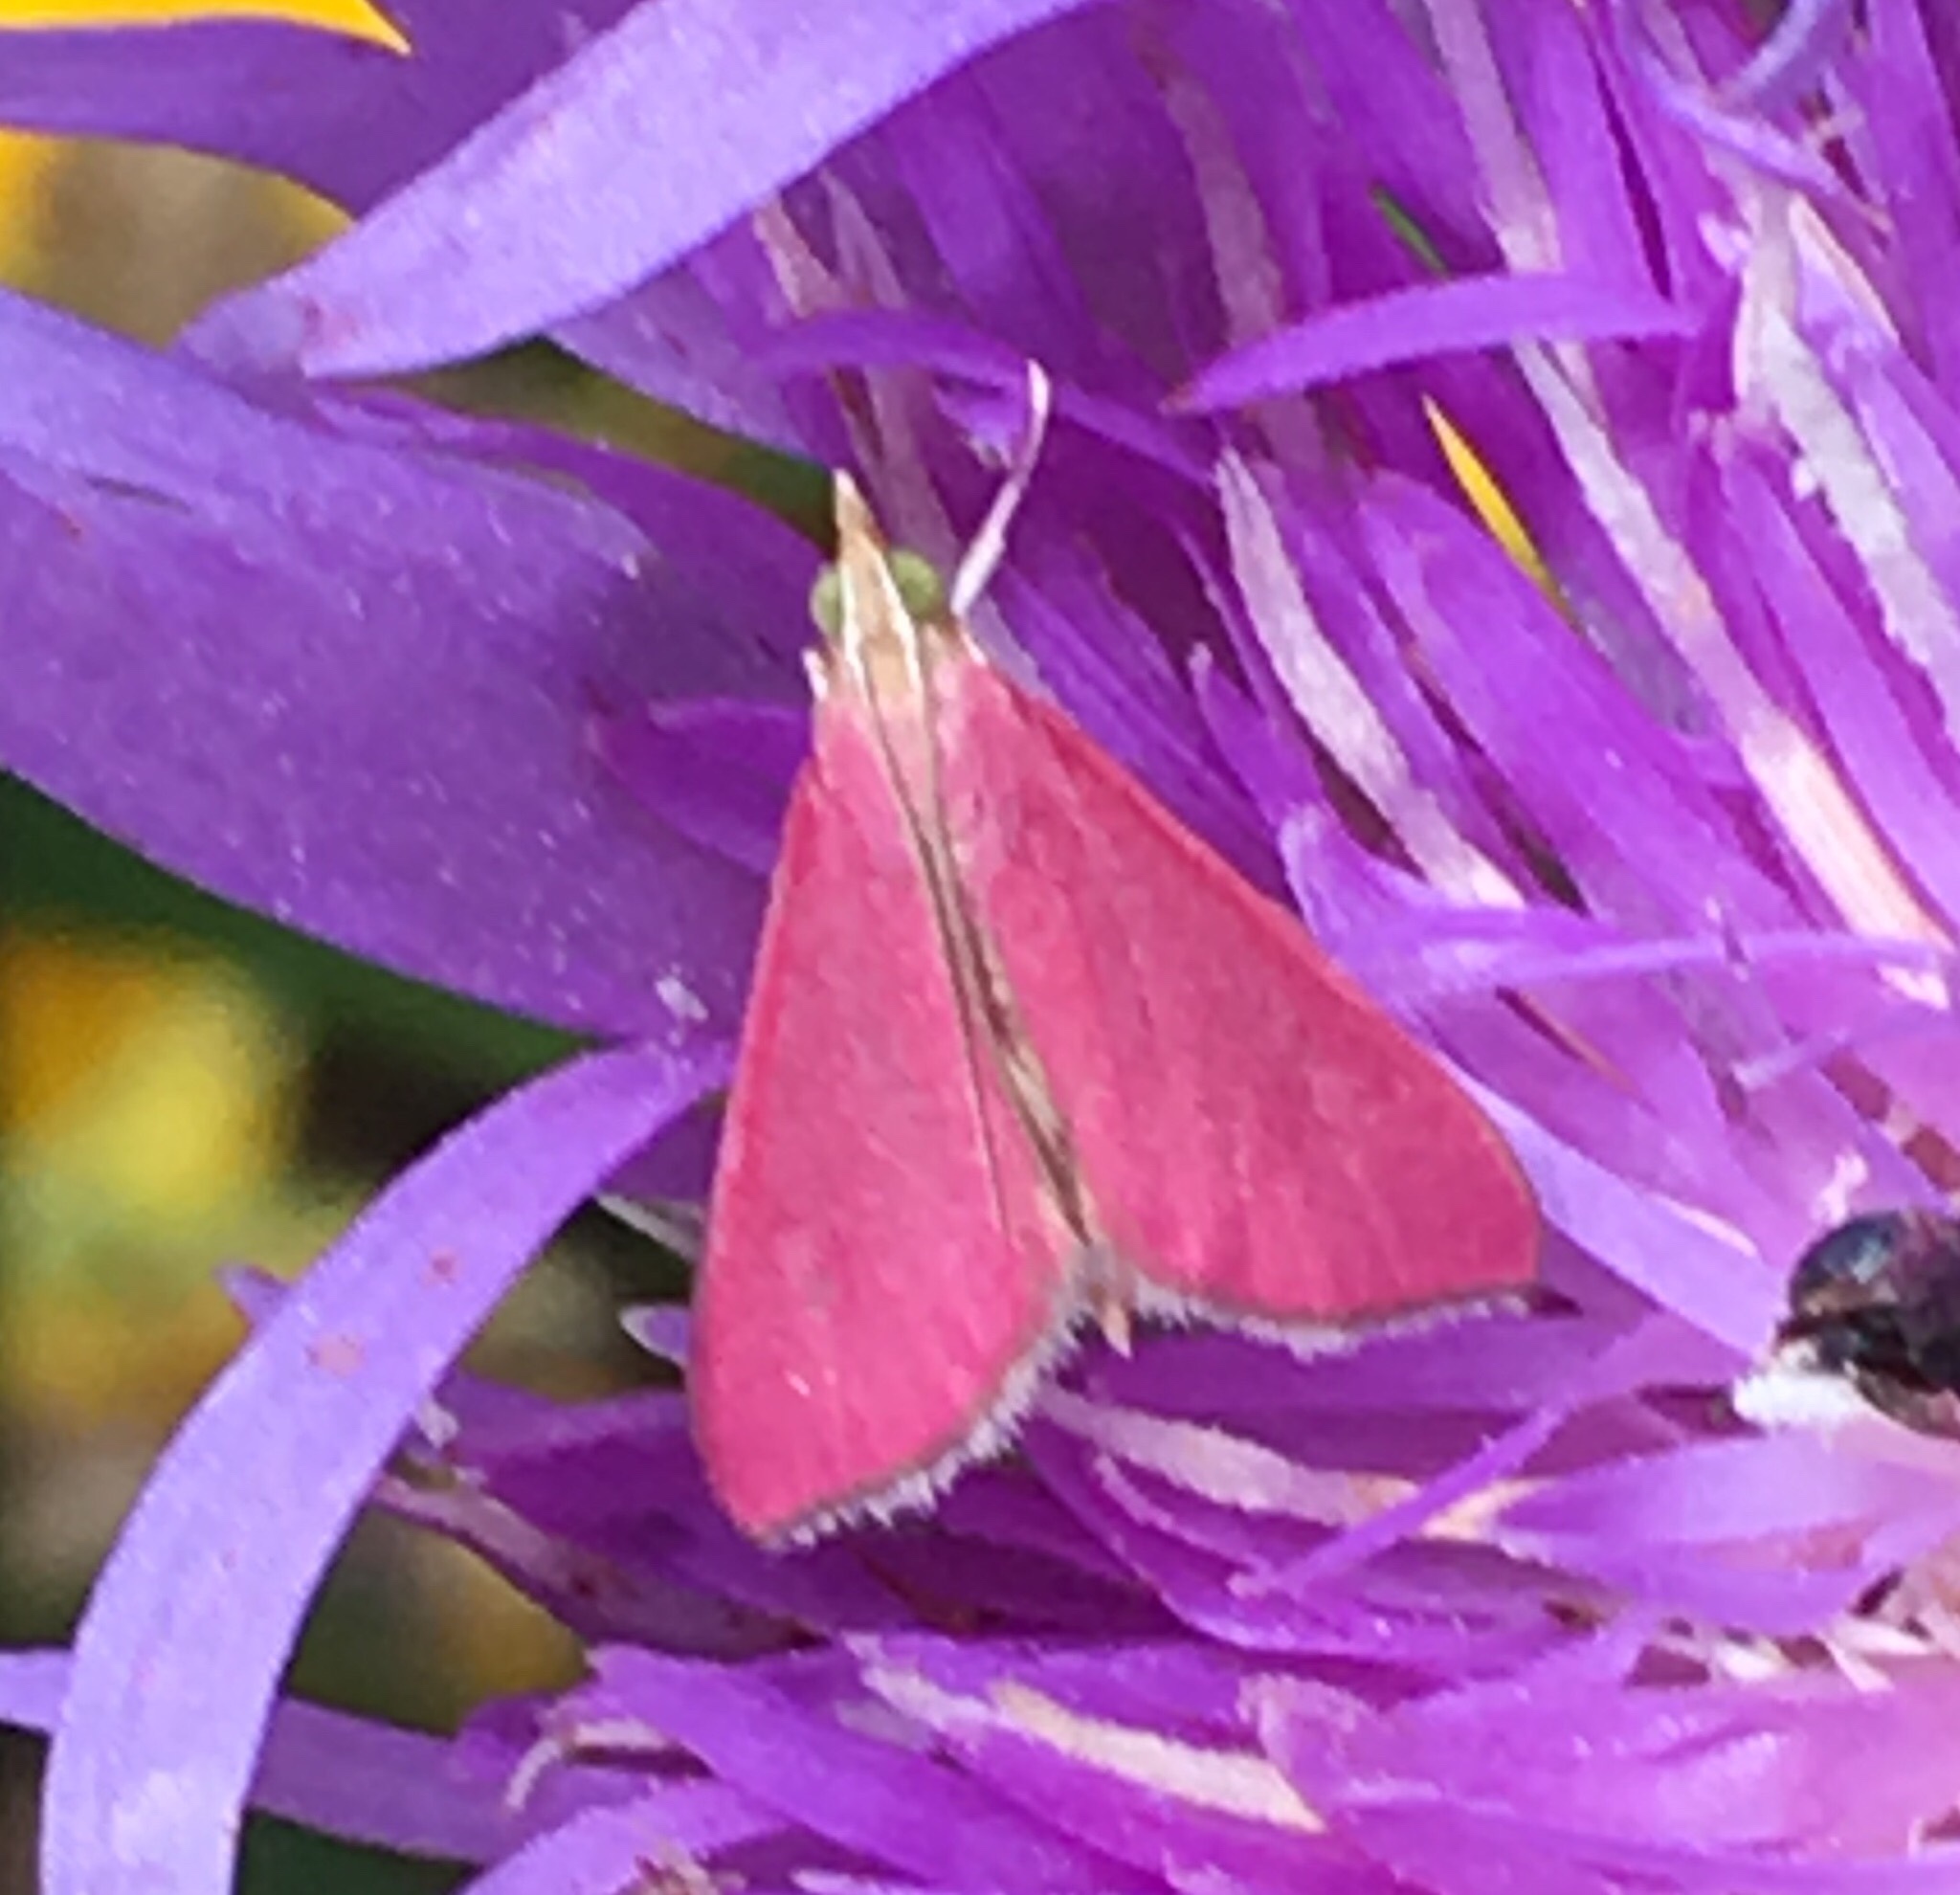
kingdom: Animalia
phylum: Arthropoda
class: Insecta
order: Lepidoptera
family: Crambidae
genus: Pyrausta
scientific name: Pyrausta inornatalis
